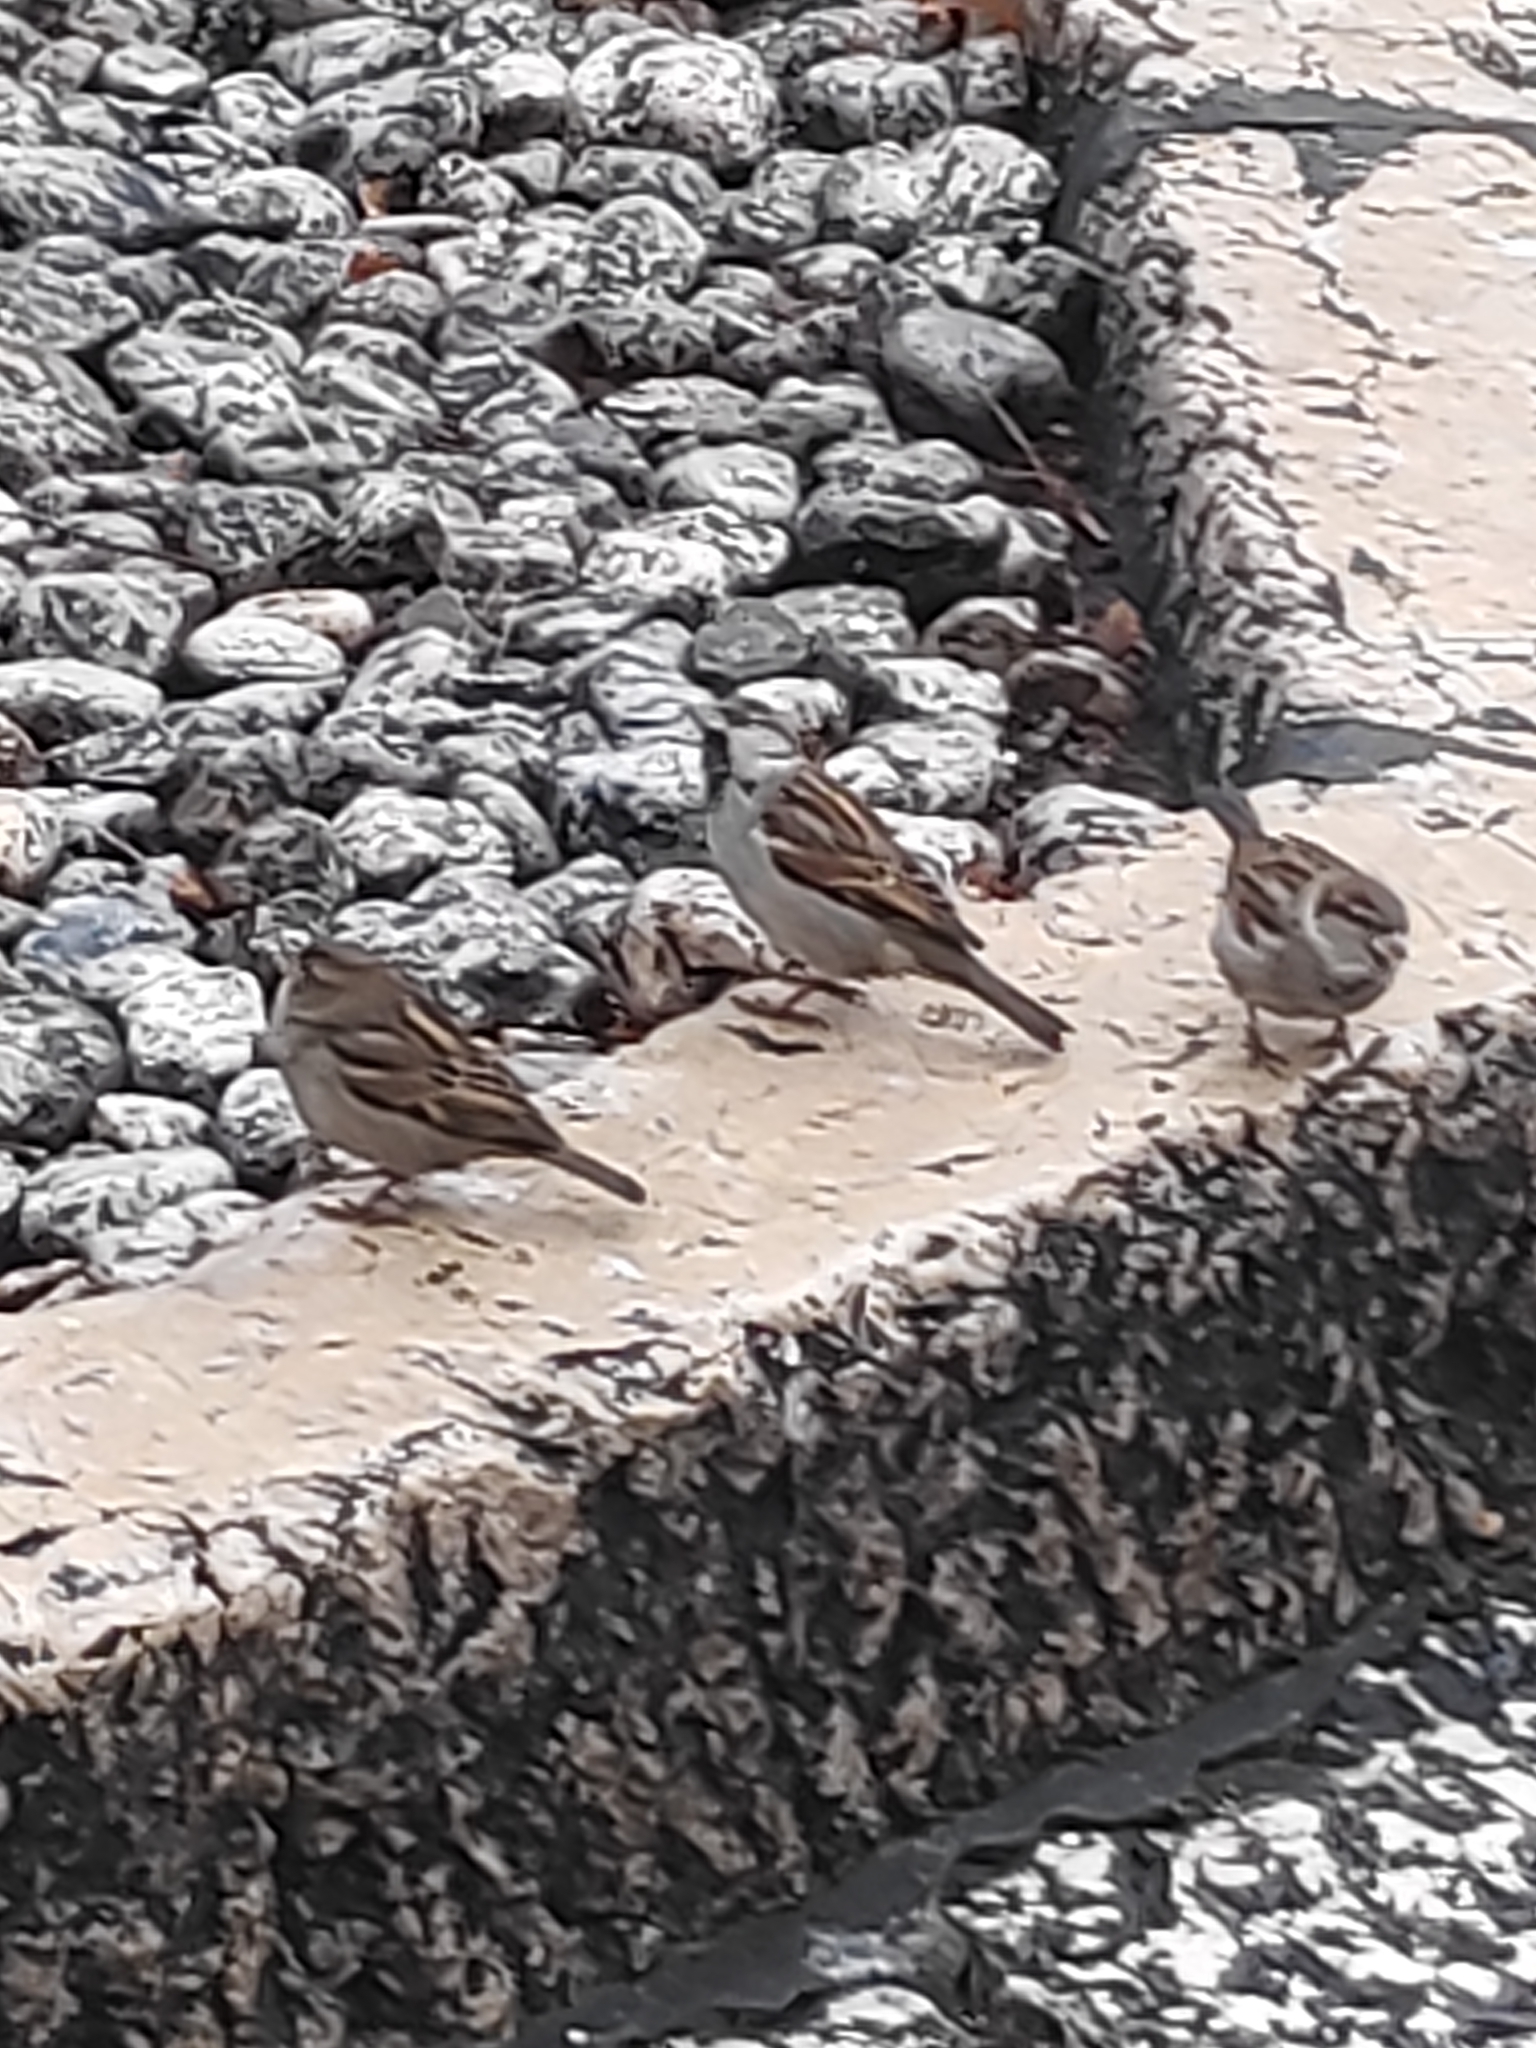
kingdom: Animalia
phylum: Chordata
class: Aves
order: Passeriformes
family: Passeridae
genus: Passer
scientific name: Passer domesticus
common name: House sparrow
